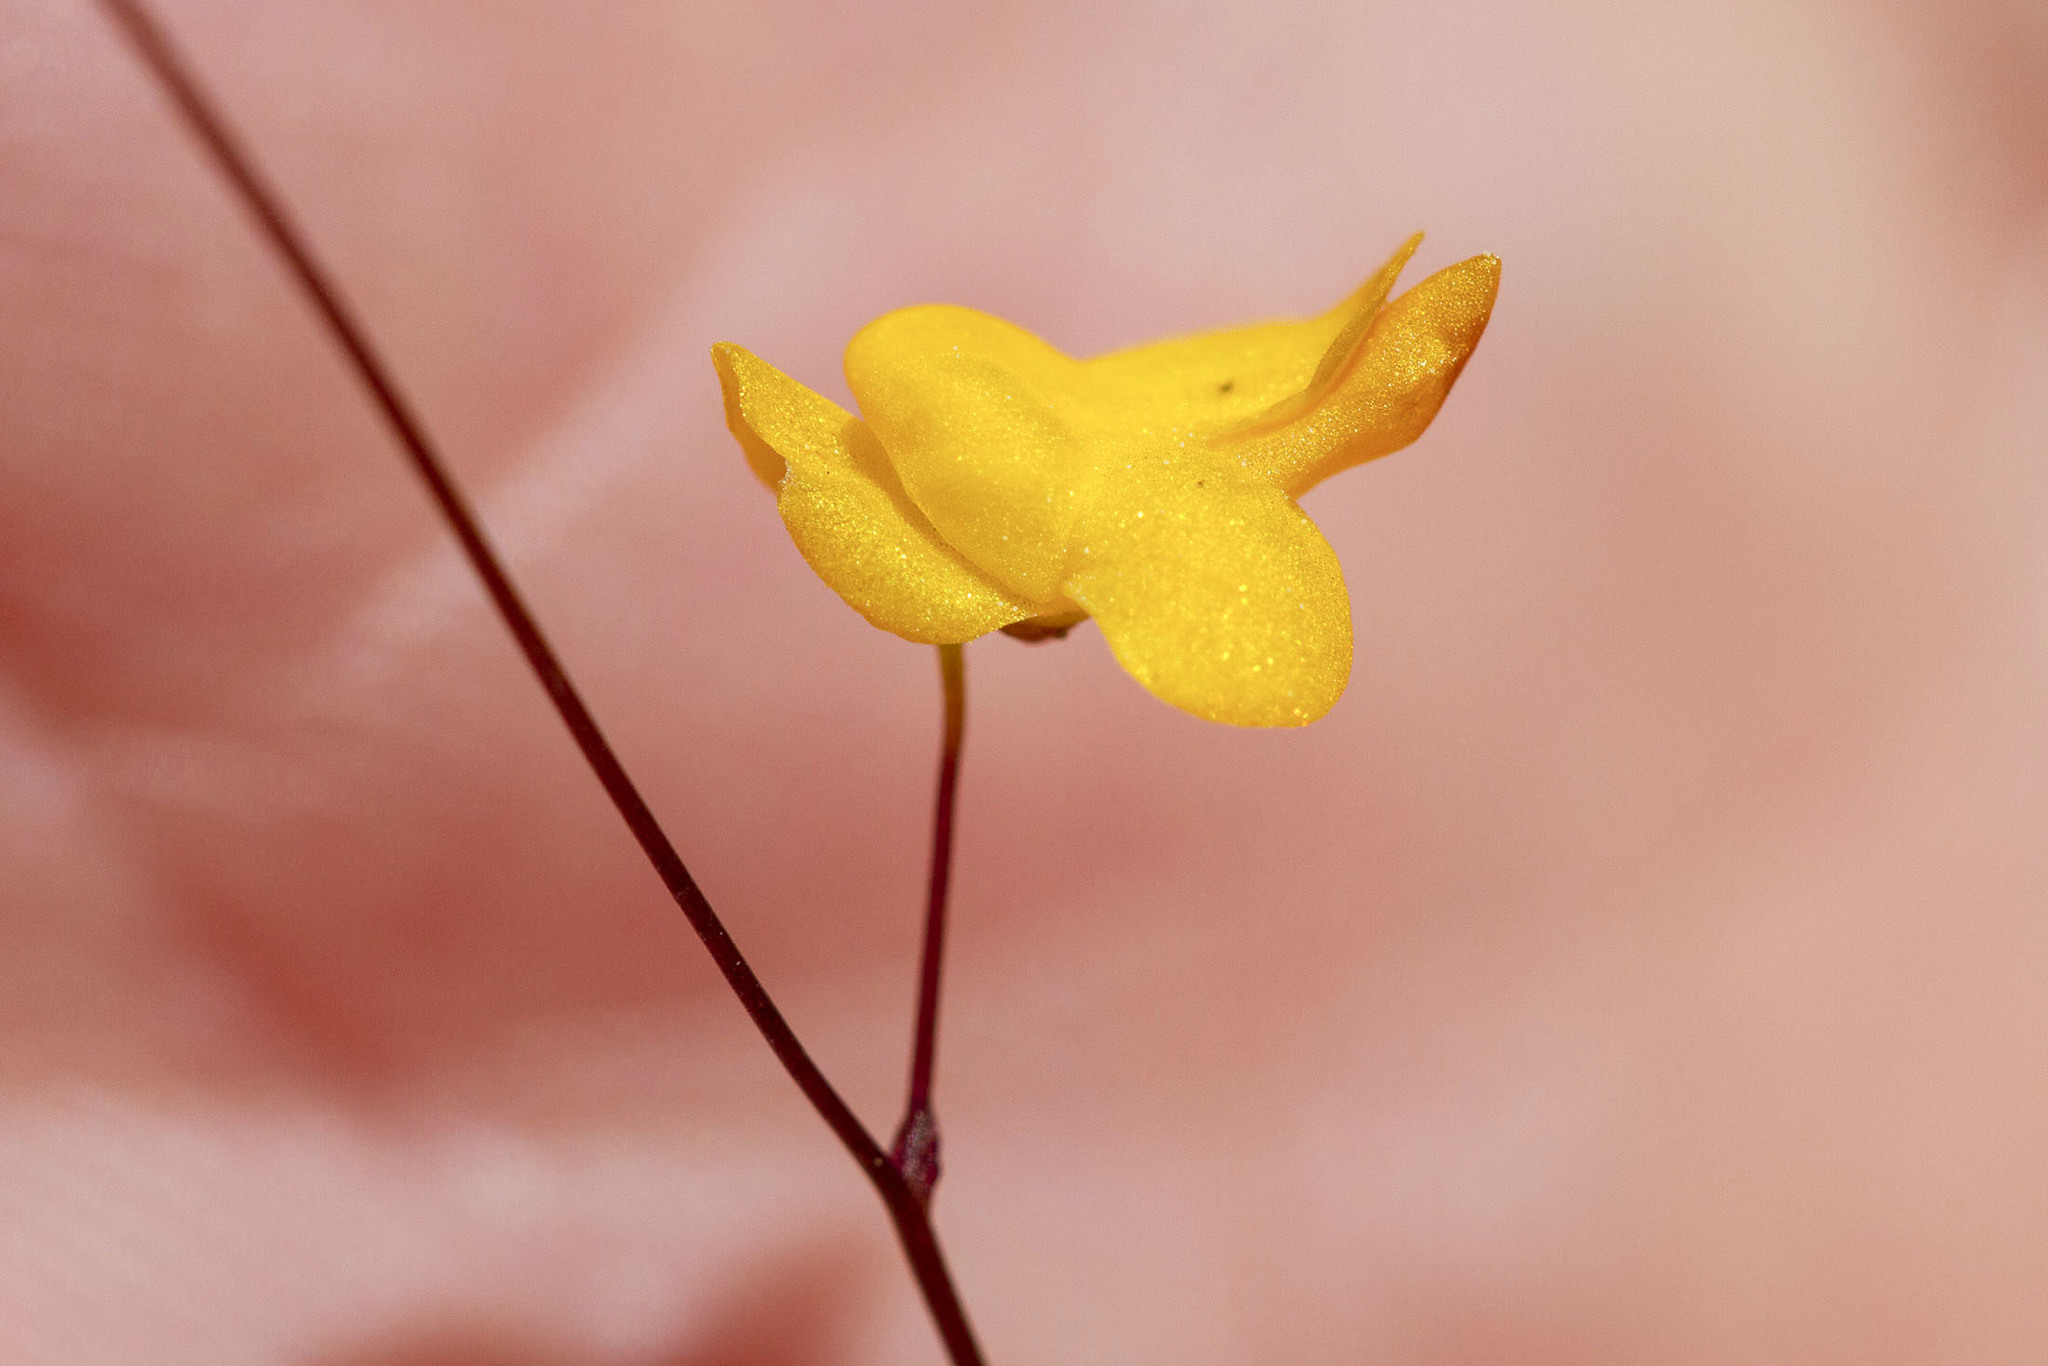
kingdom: Plantae
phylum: Tracheophyta
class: Magnoliopsida
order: Lamiales
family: Lentibulariaceae
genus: Utricularia
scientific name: Utricularia subulata
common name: Tiny bladderwort
